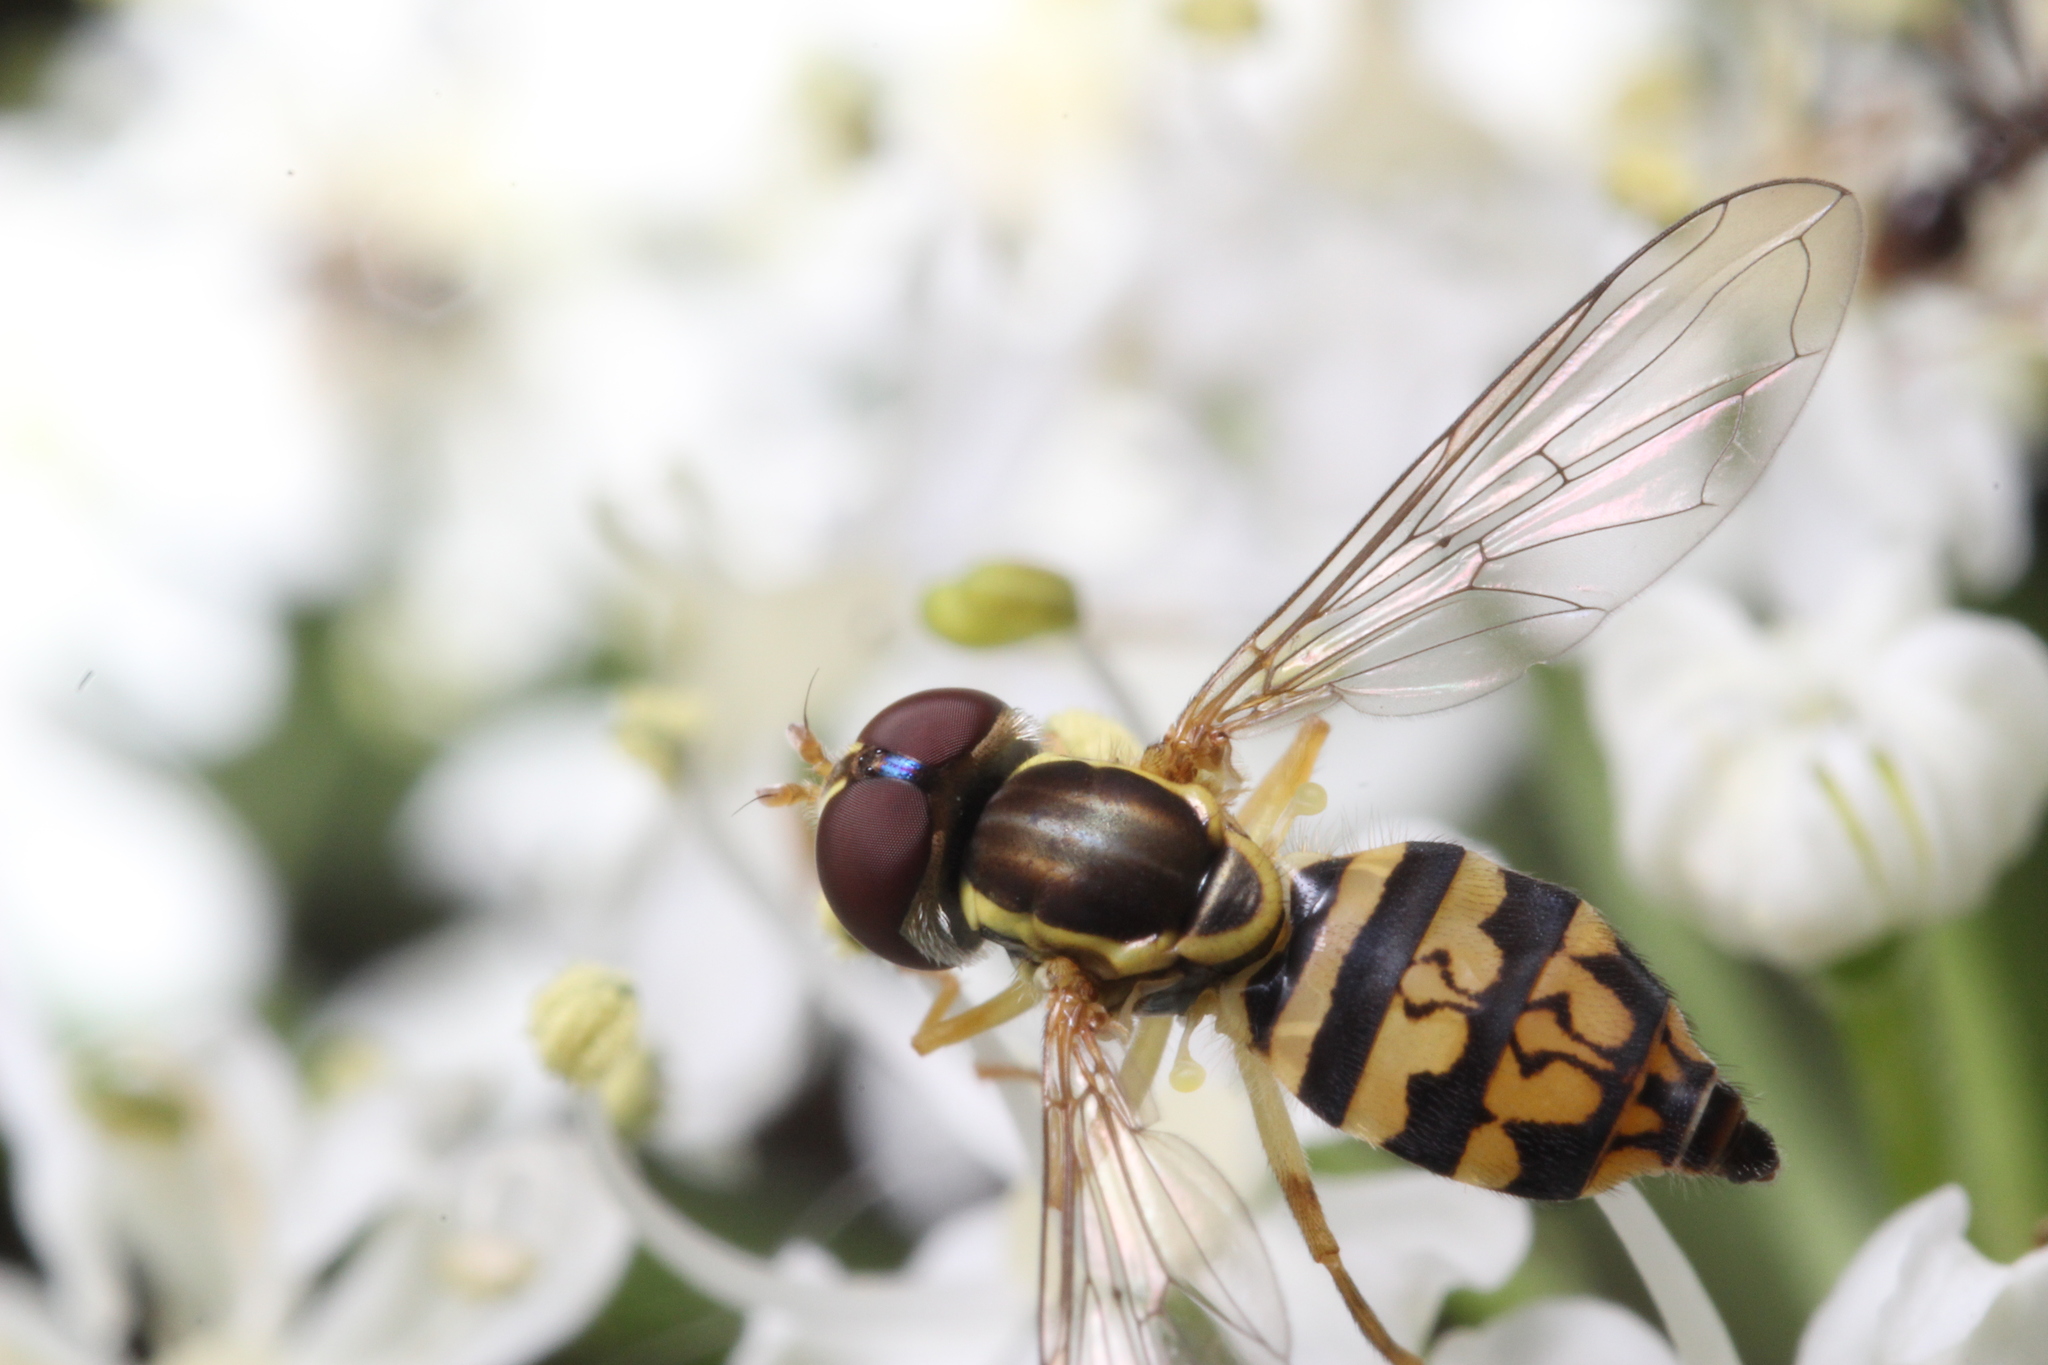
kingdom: Animalia
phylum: Arthropoda
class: Insecta
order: Diptera
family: Syrphidae
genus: Toxomerus
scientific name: Toxomerus geminatus
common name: Eastern calligrapher
